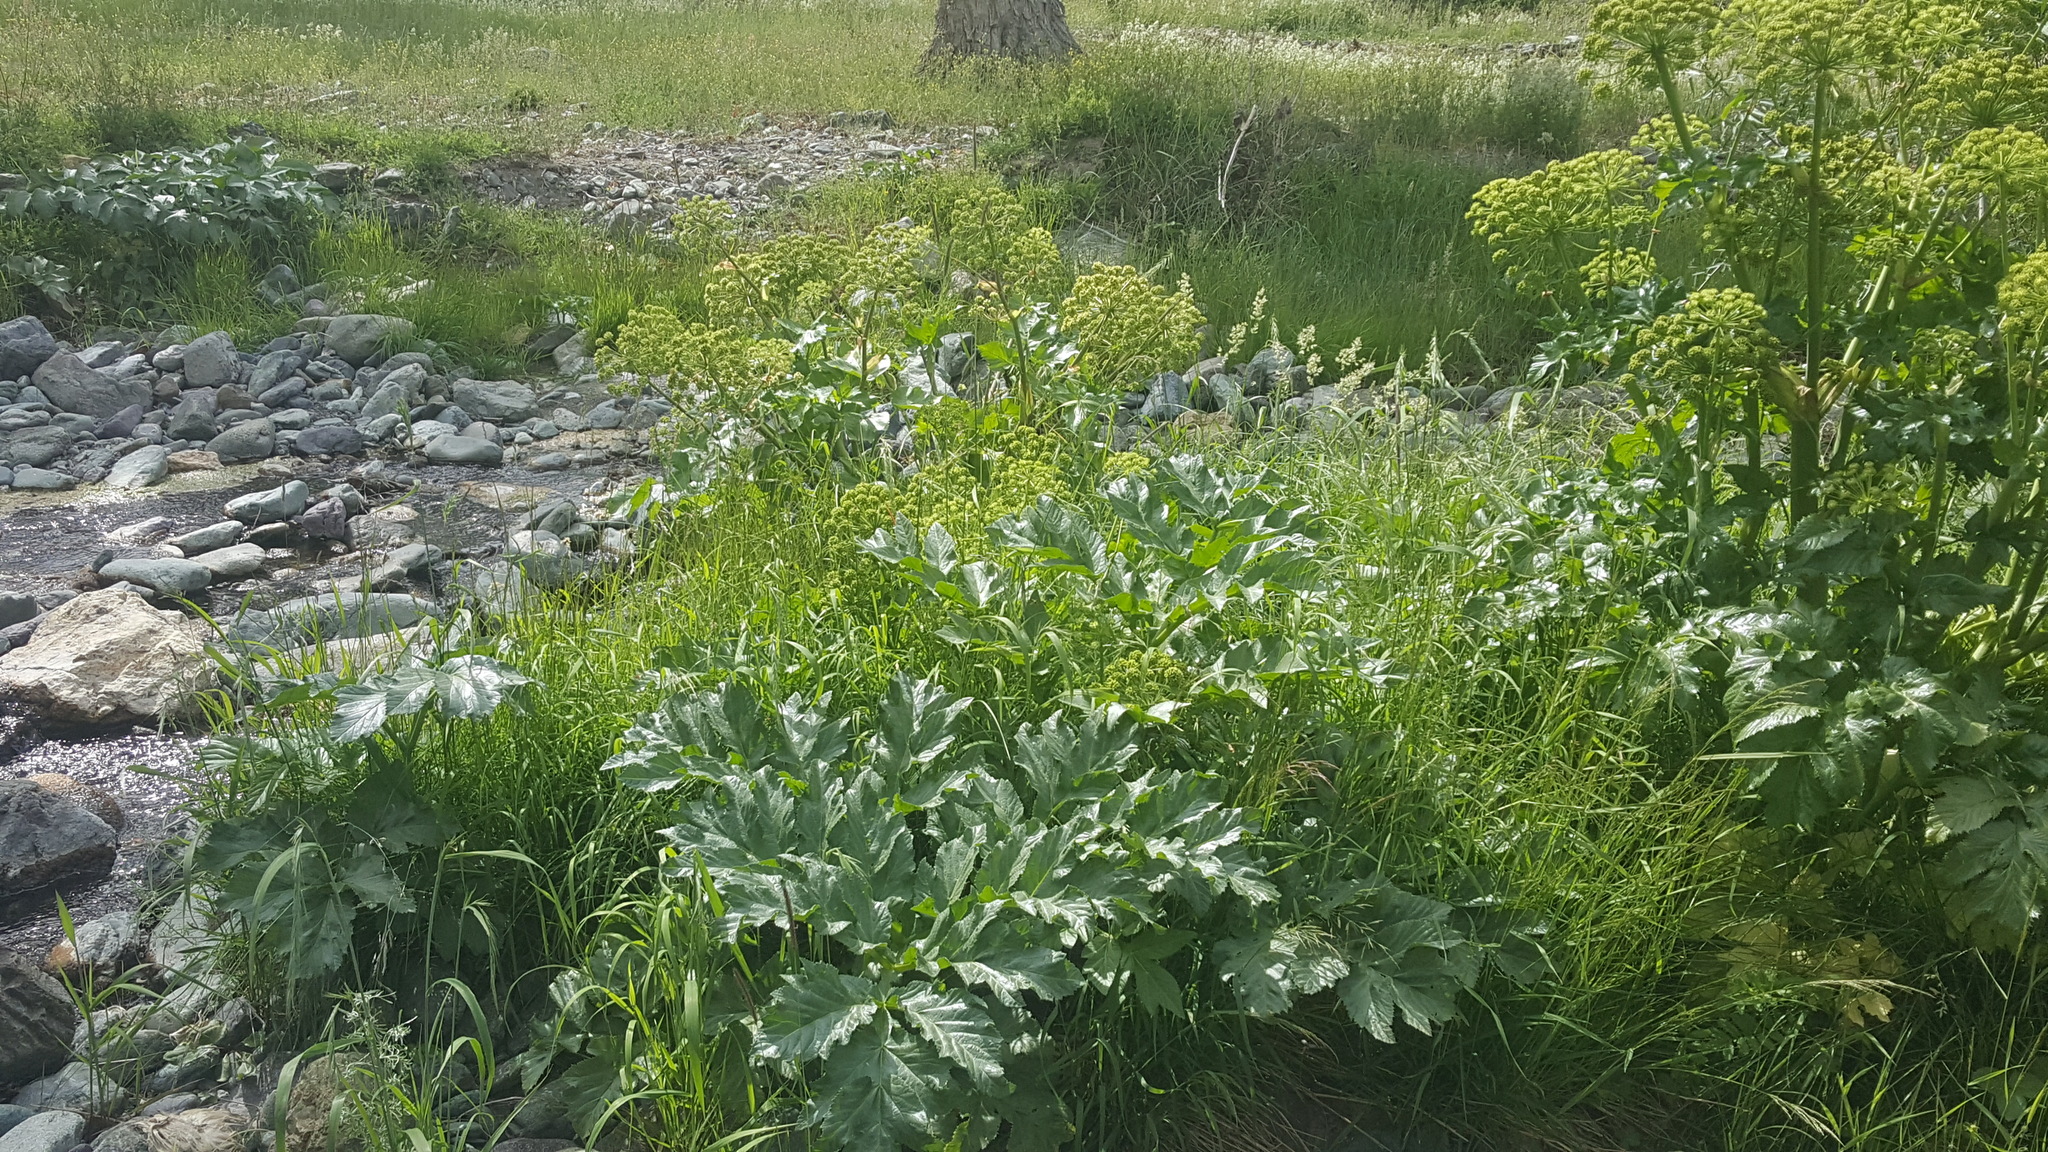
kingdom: Plantae
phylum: Tracheophyta
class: Magnoliopsida
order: Apiales
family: Apiaceae
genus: Angelica
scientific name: Angelica decurrens
